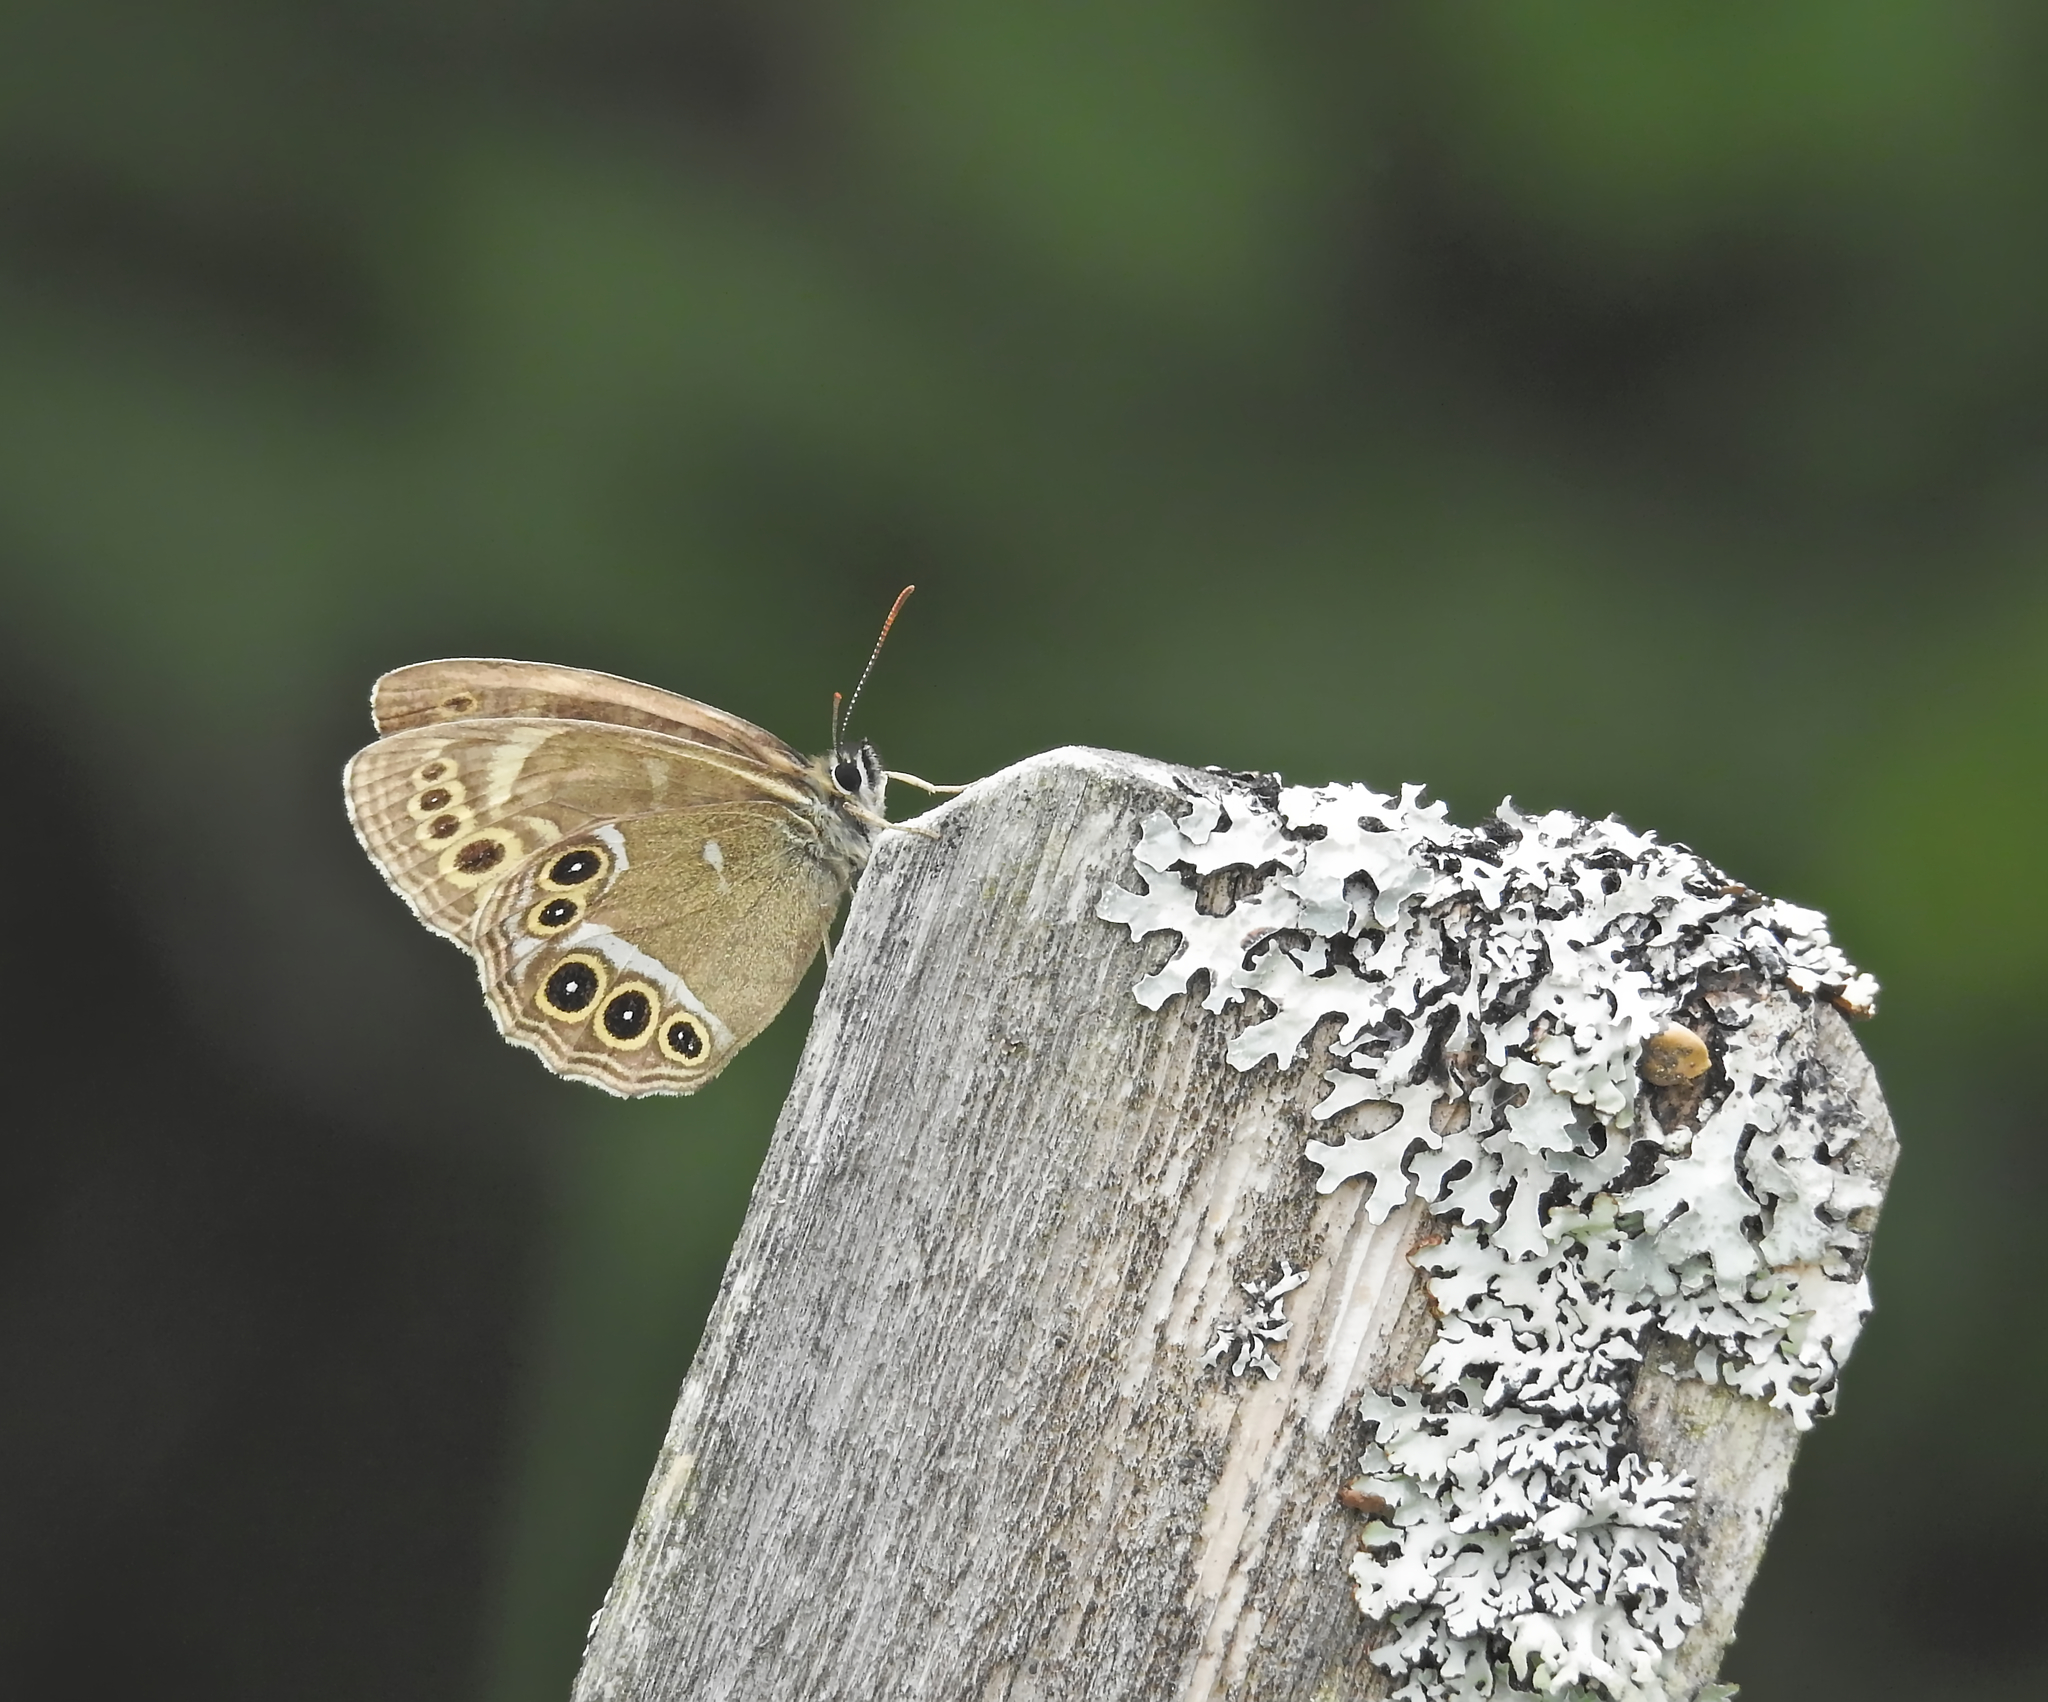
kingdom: Animalia
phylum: Arthropoda
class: Insecta
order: Lepidoptera
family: Nymphalidae
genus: Pararge
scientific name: Pararge Lopinga achine
